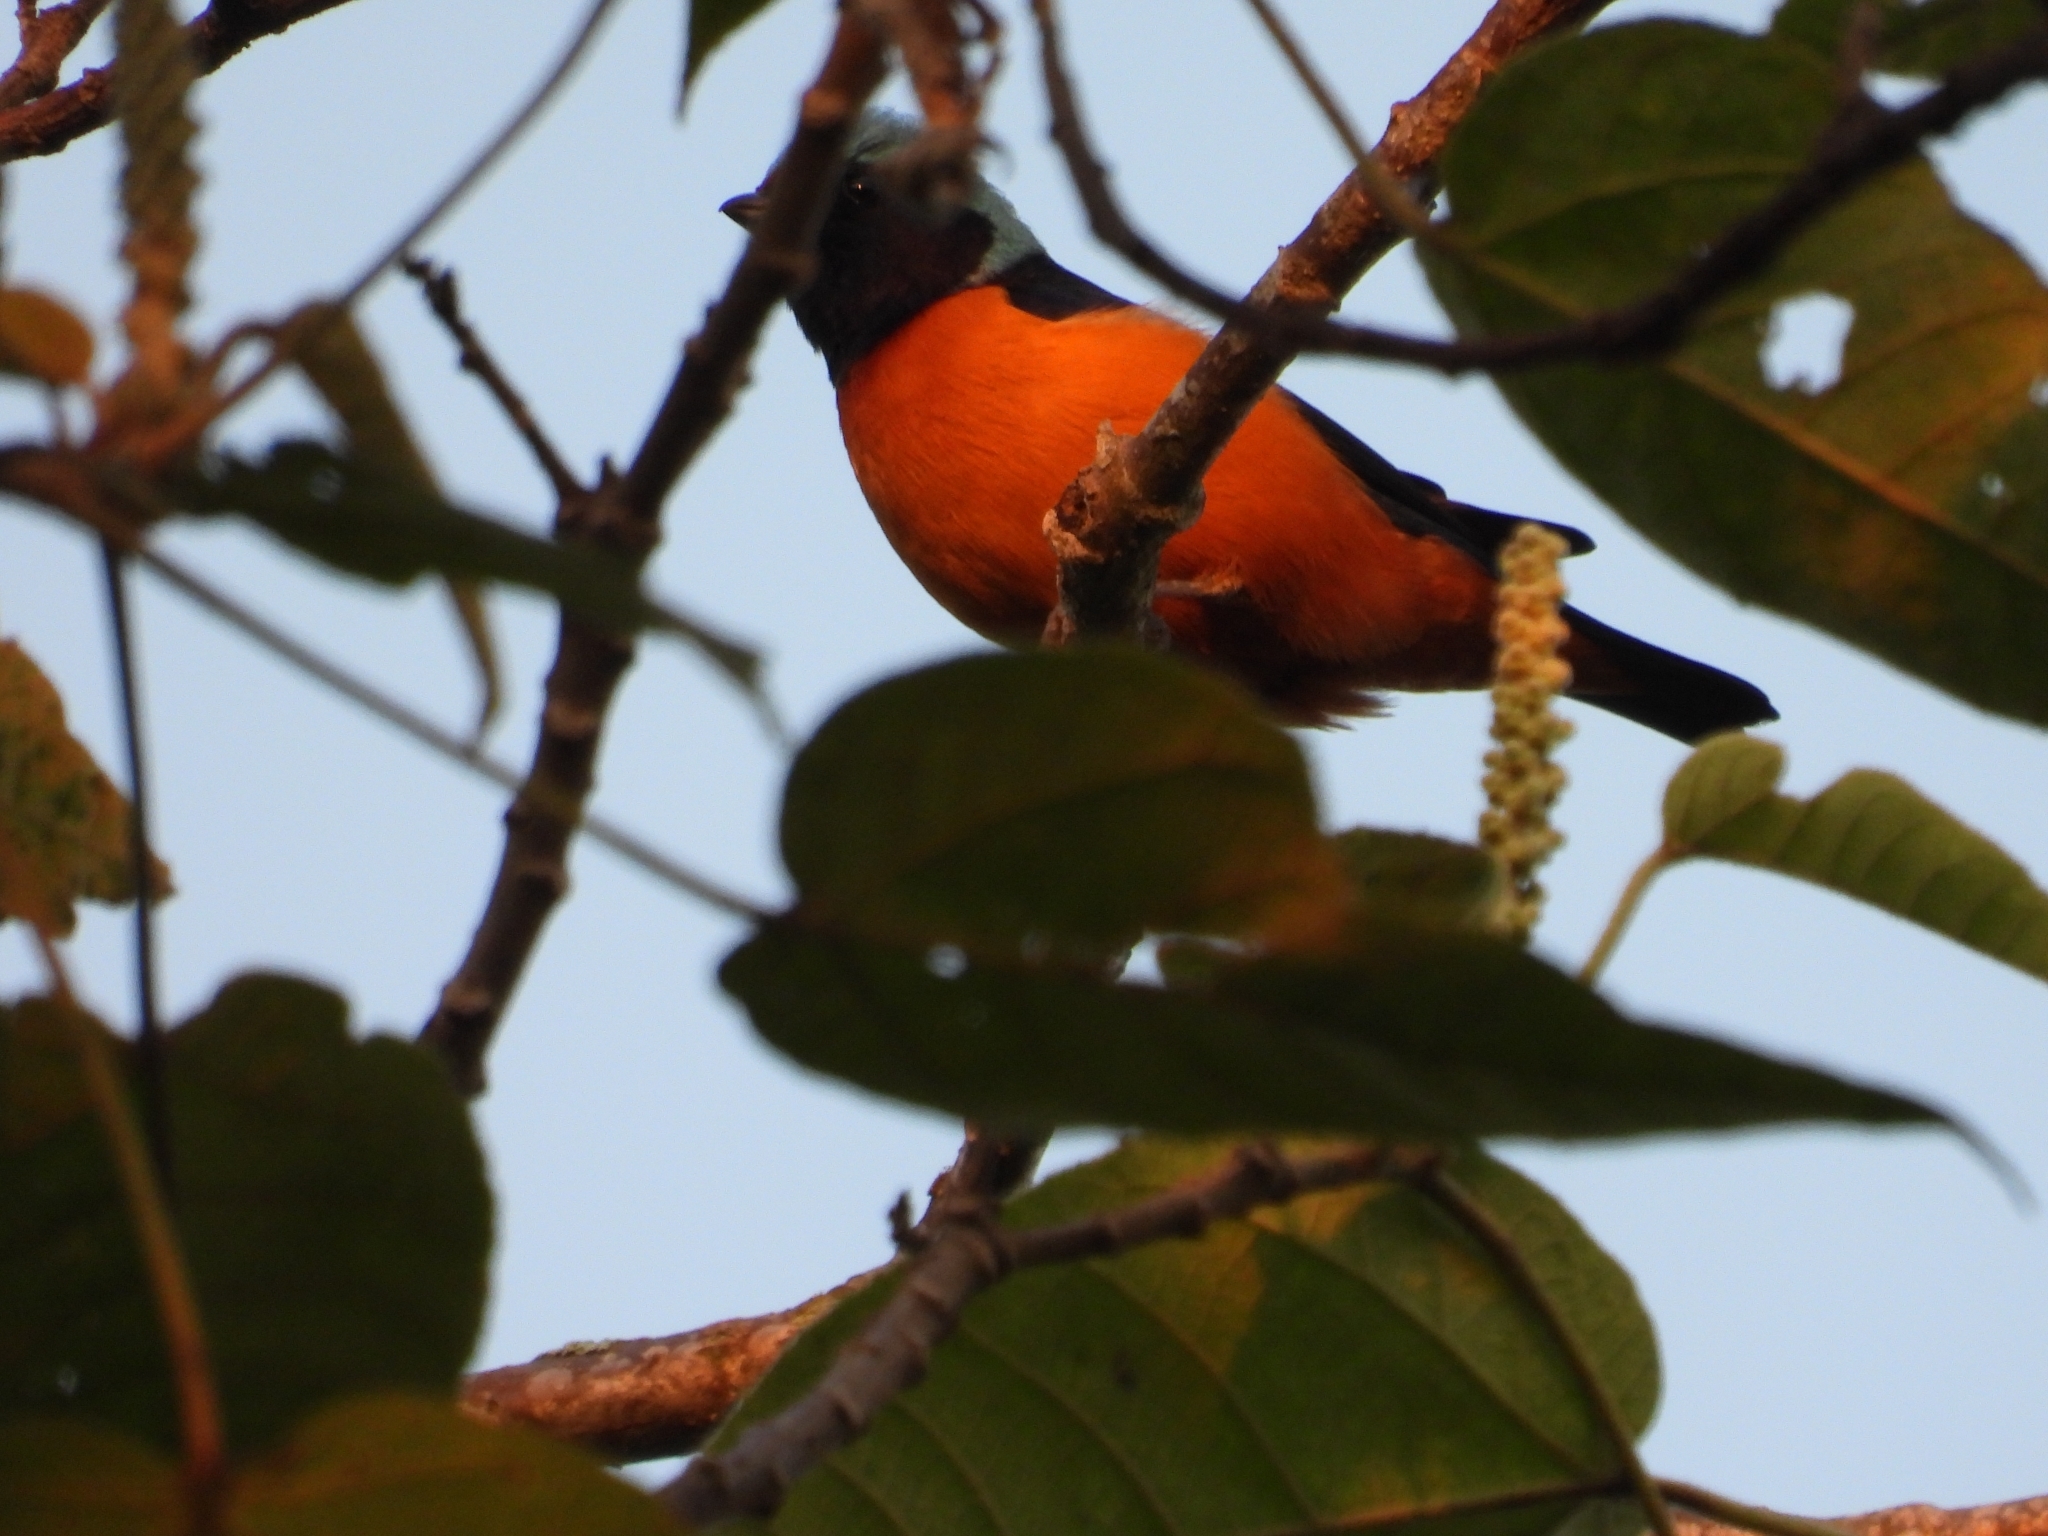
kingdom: Animalia
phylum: Chordata
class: Aves
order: Passeriformes
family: Fringillidae
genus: Euphonia
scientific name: Euphonia elegantissima
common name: Elegant euphonia
